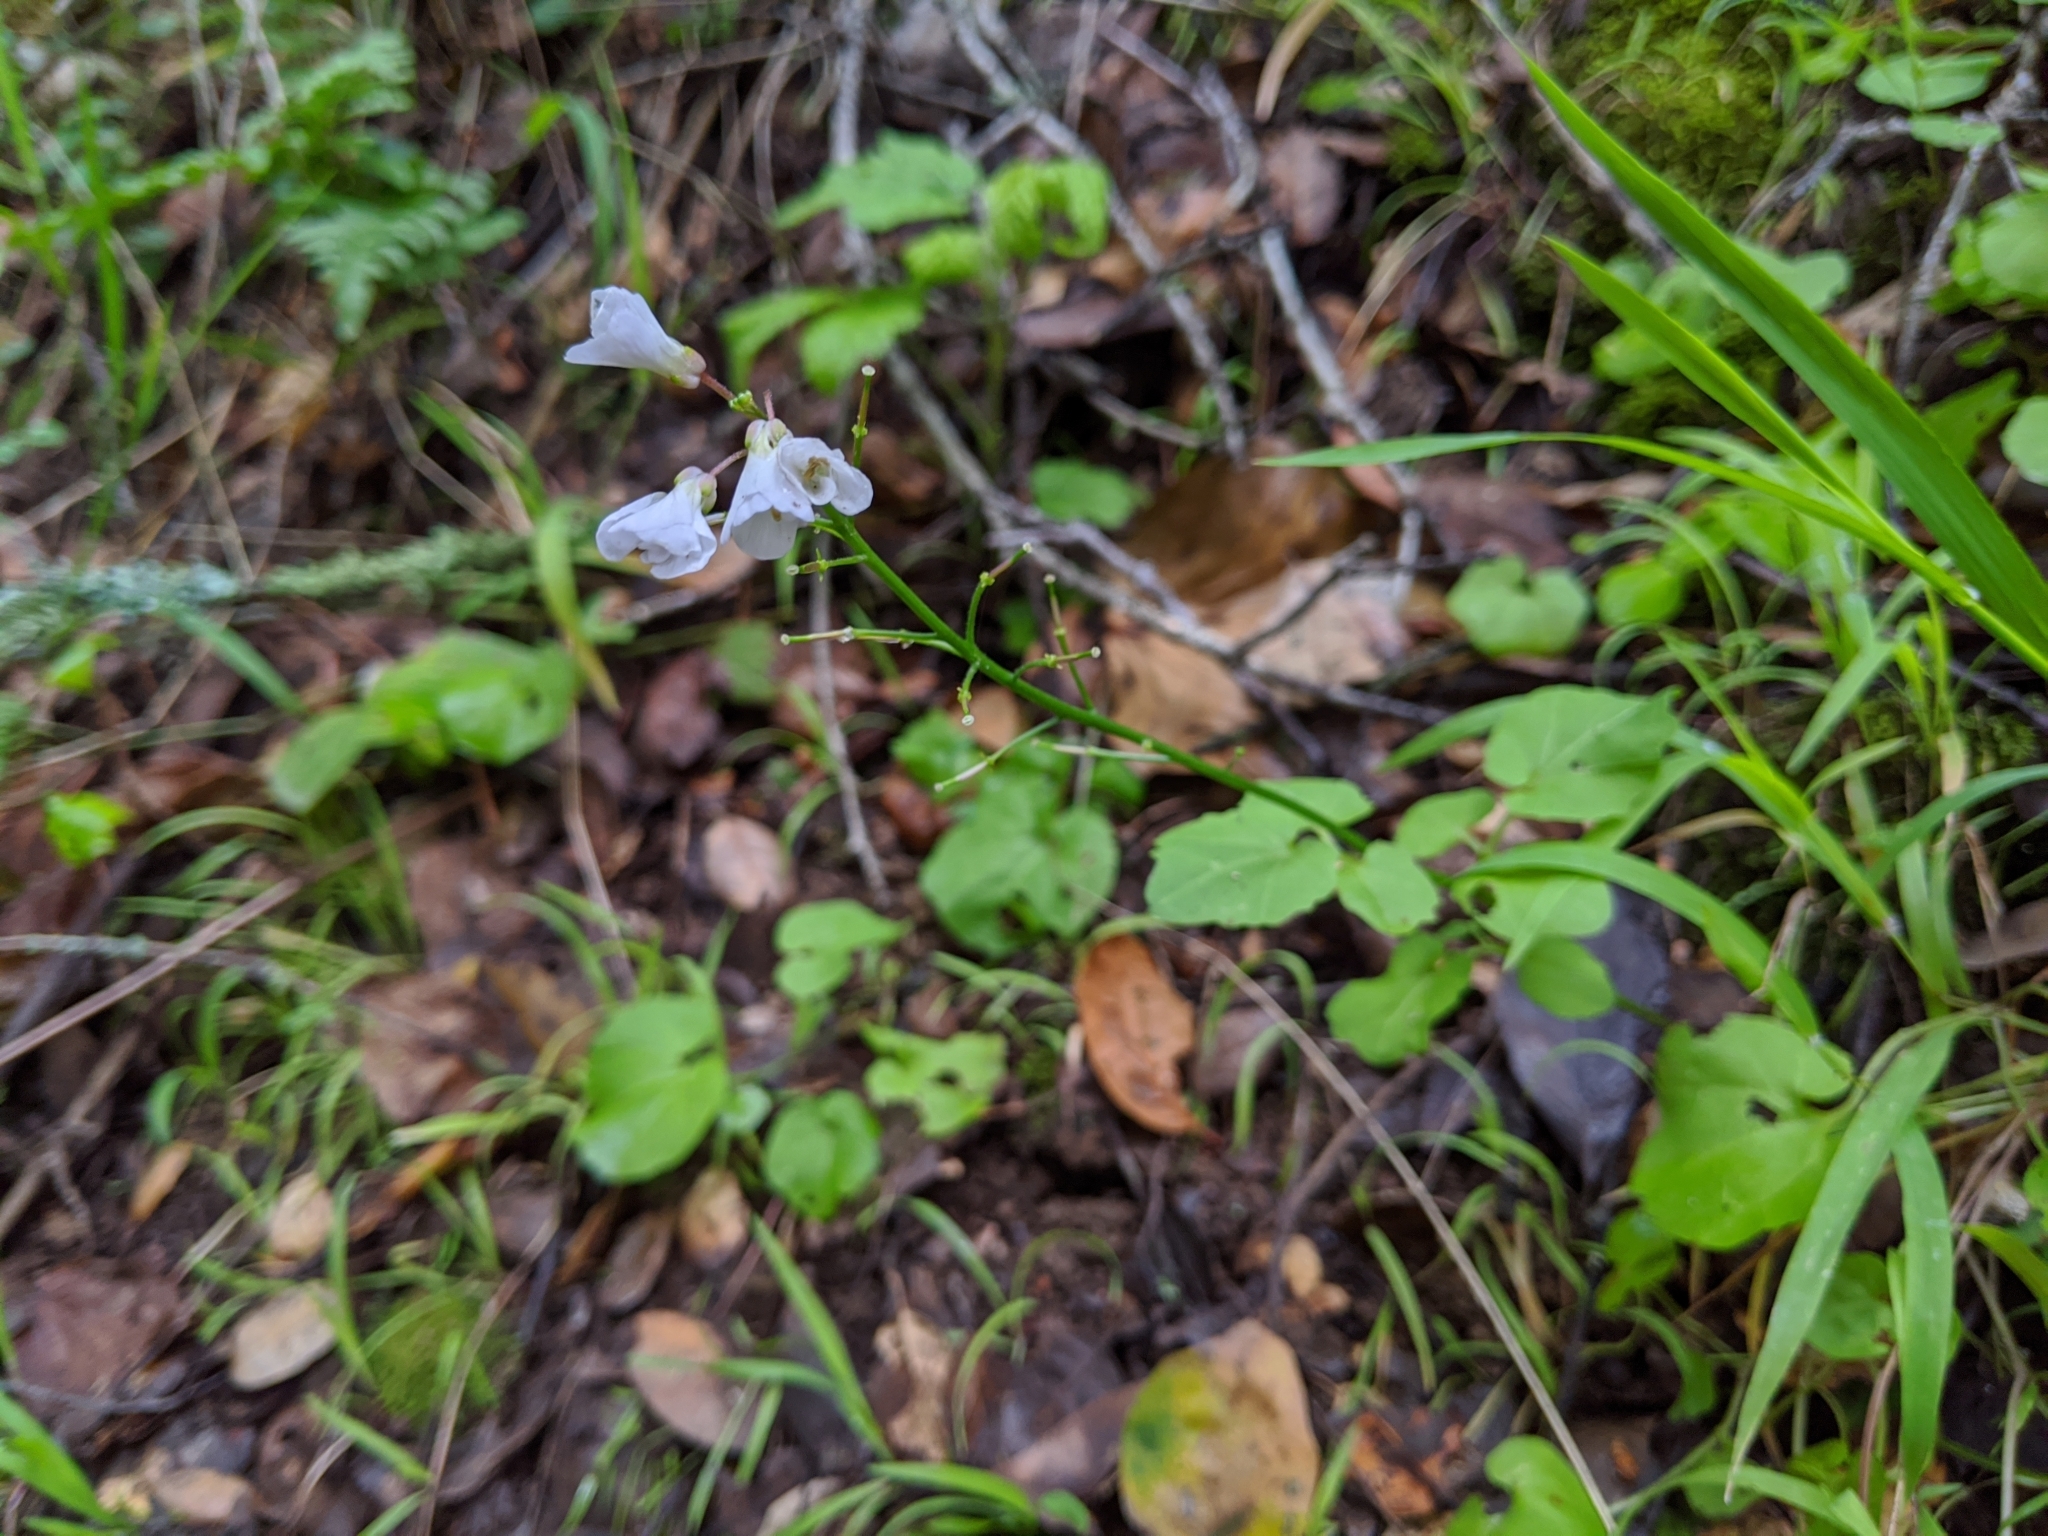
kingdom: Plantae
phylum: Tracheophyta
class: Magnoliopsida
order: Brassicales
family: Brassicaceae
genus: Cardamine
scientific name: Cardamine californica
